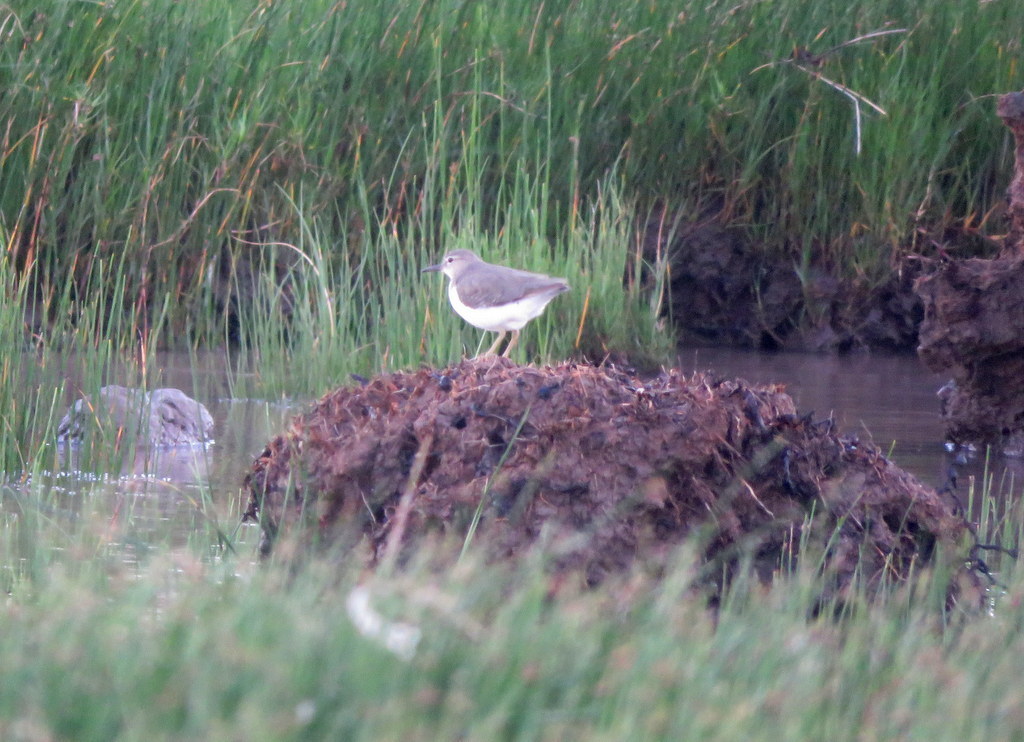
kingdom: Animalia
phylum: Chordata
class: Aves
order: Charadriiformes
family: Scolopacidae
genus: Actitis
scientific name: Actitis macularius
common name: Spotted sandpiper
